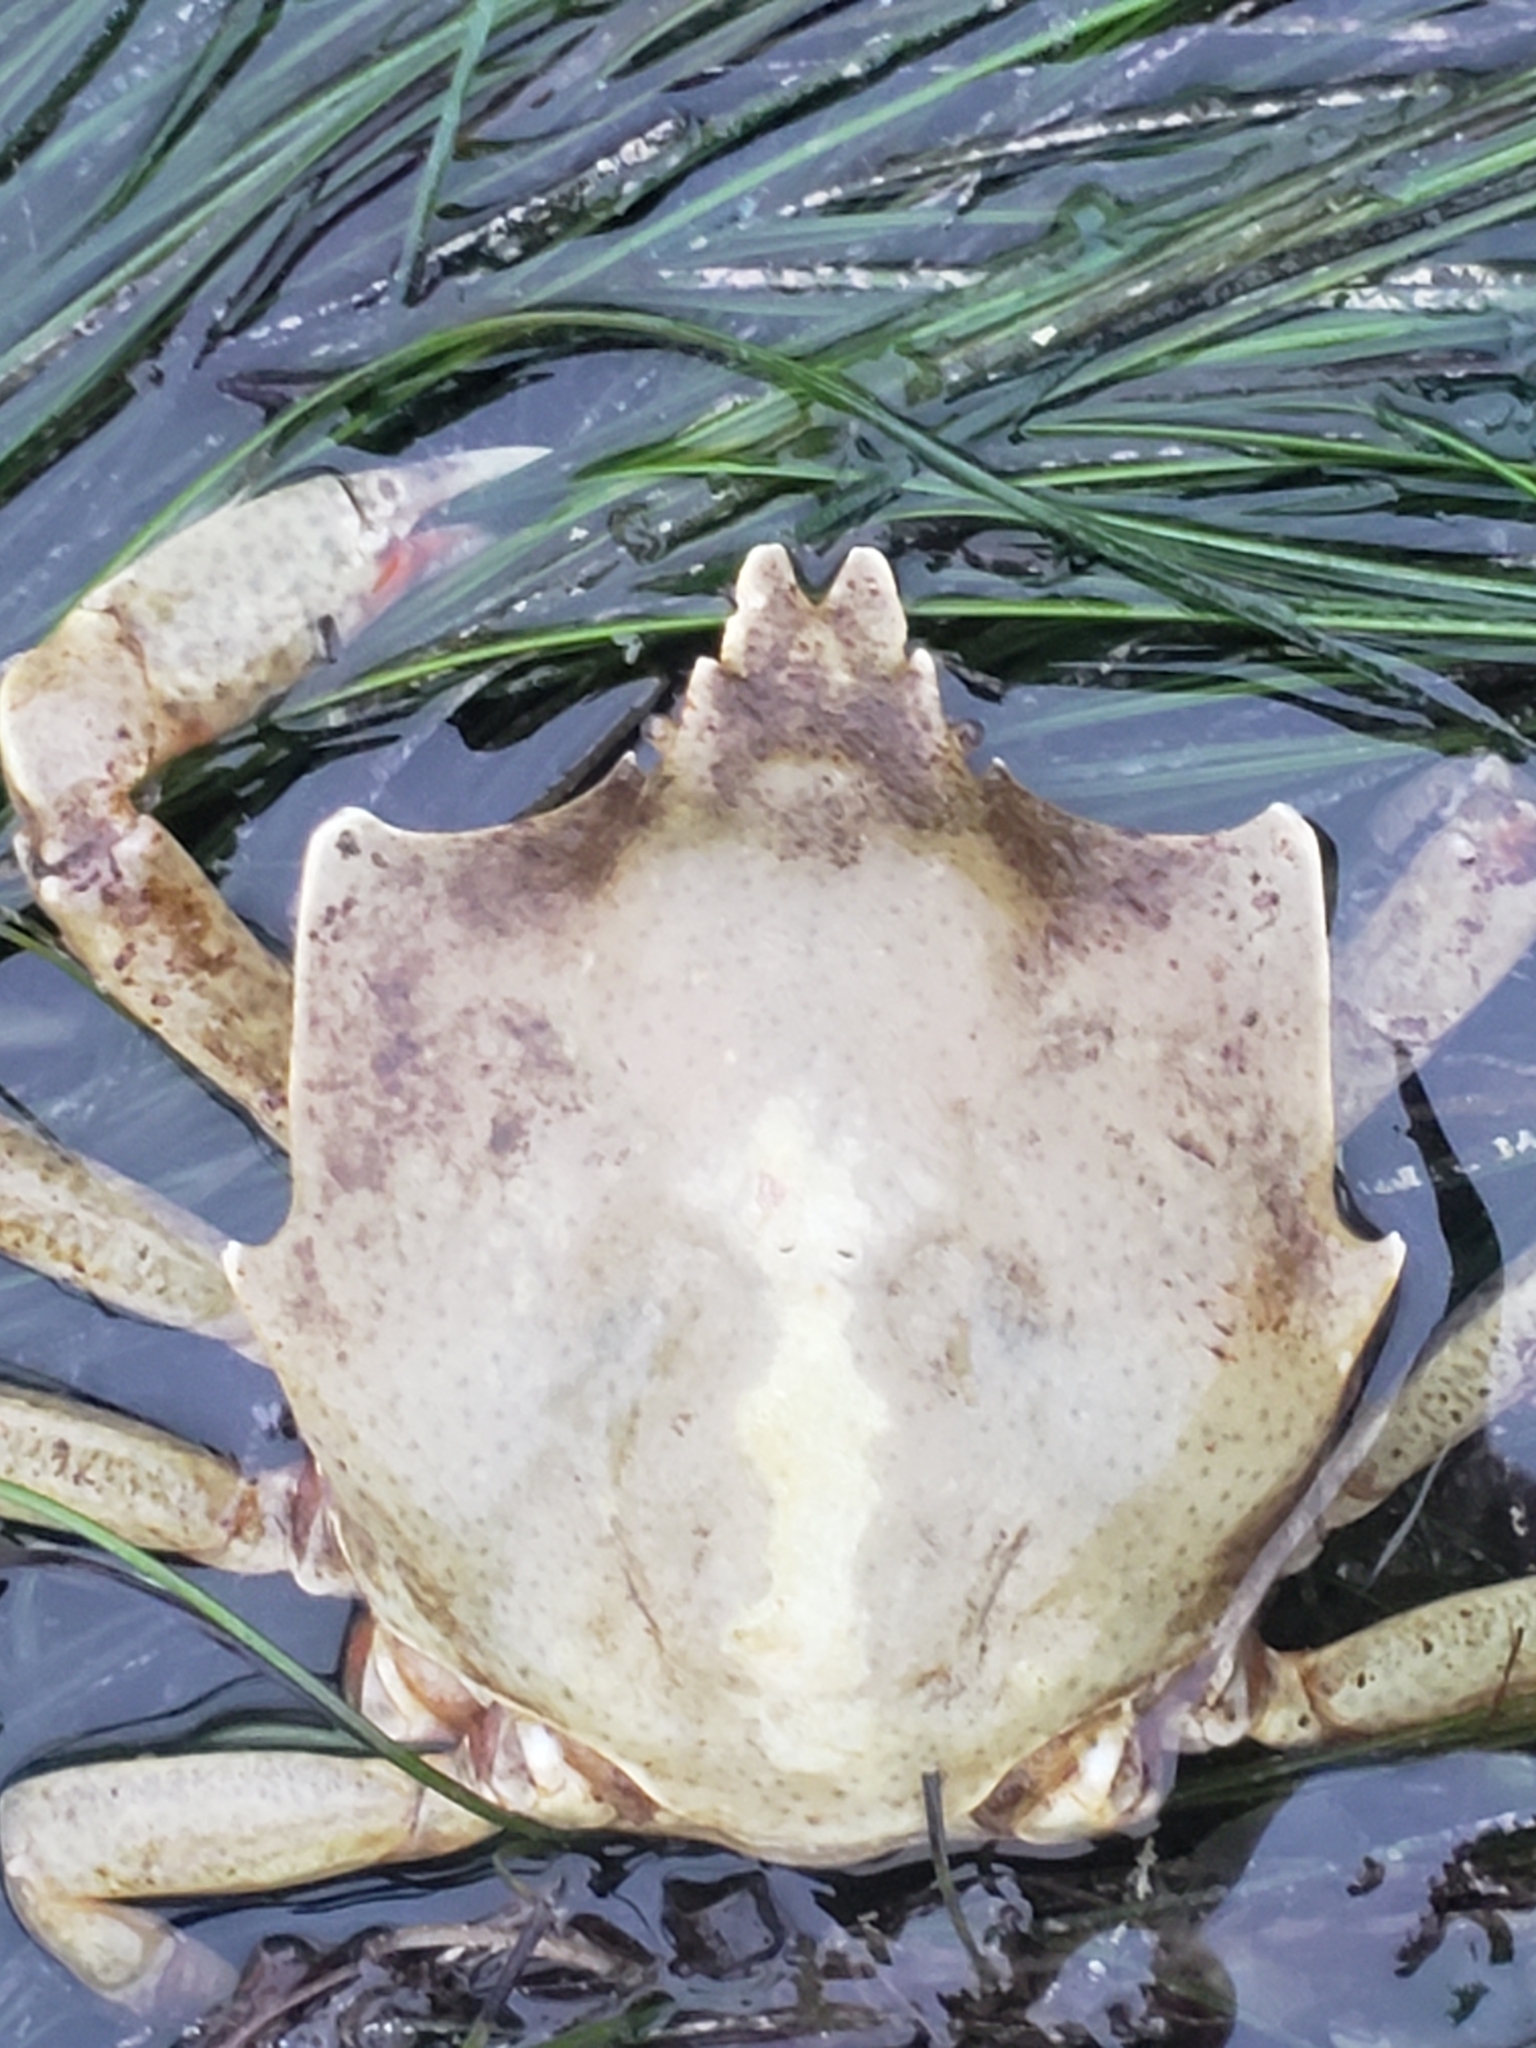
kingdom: Animalia
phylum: Arthropoda
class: Malacostraca
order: Decapoda
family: Epialtidae
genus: Pugettia
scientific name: Pugettia producta
